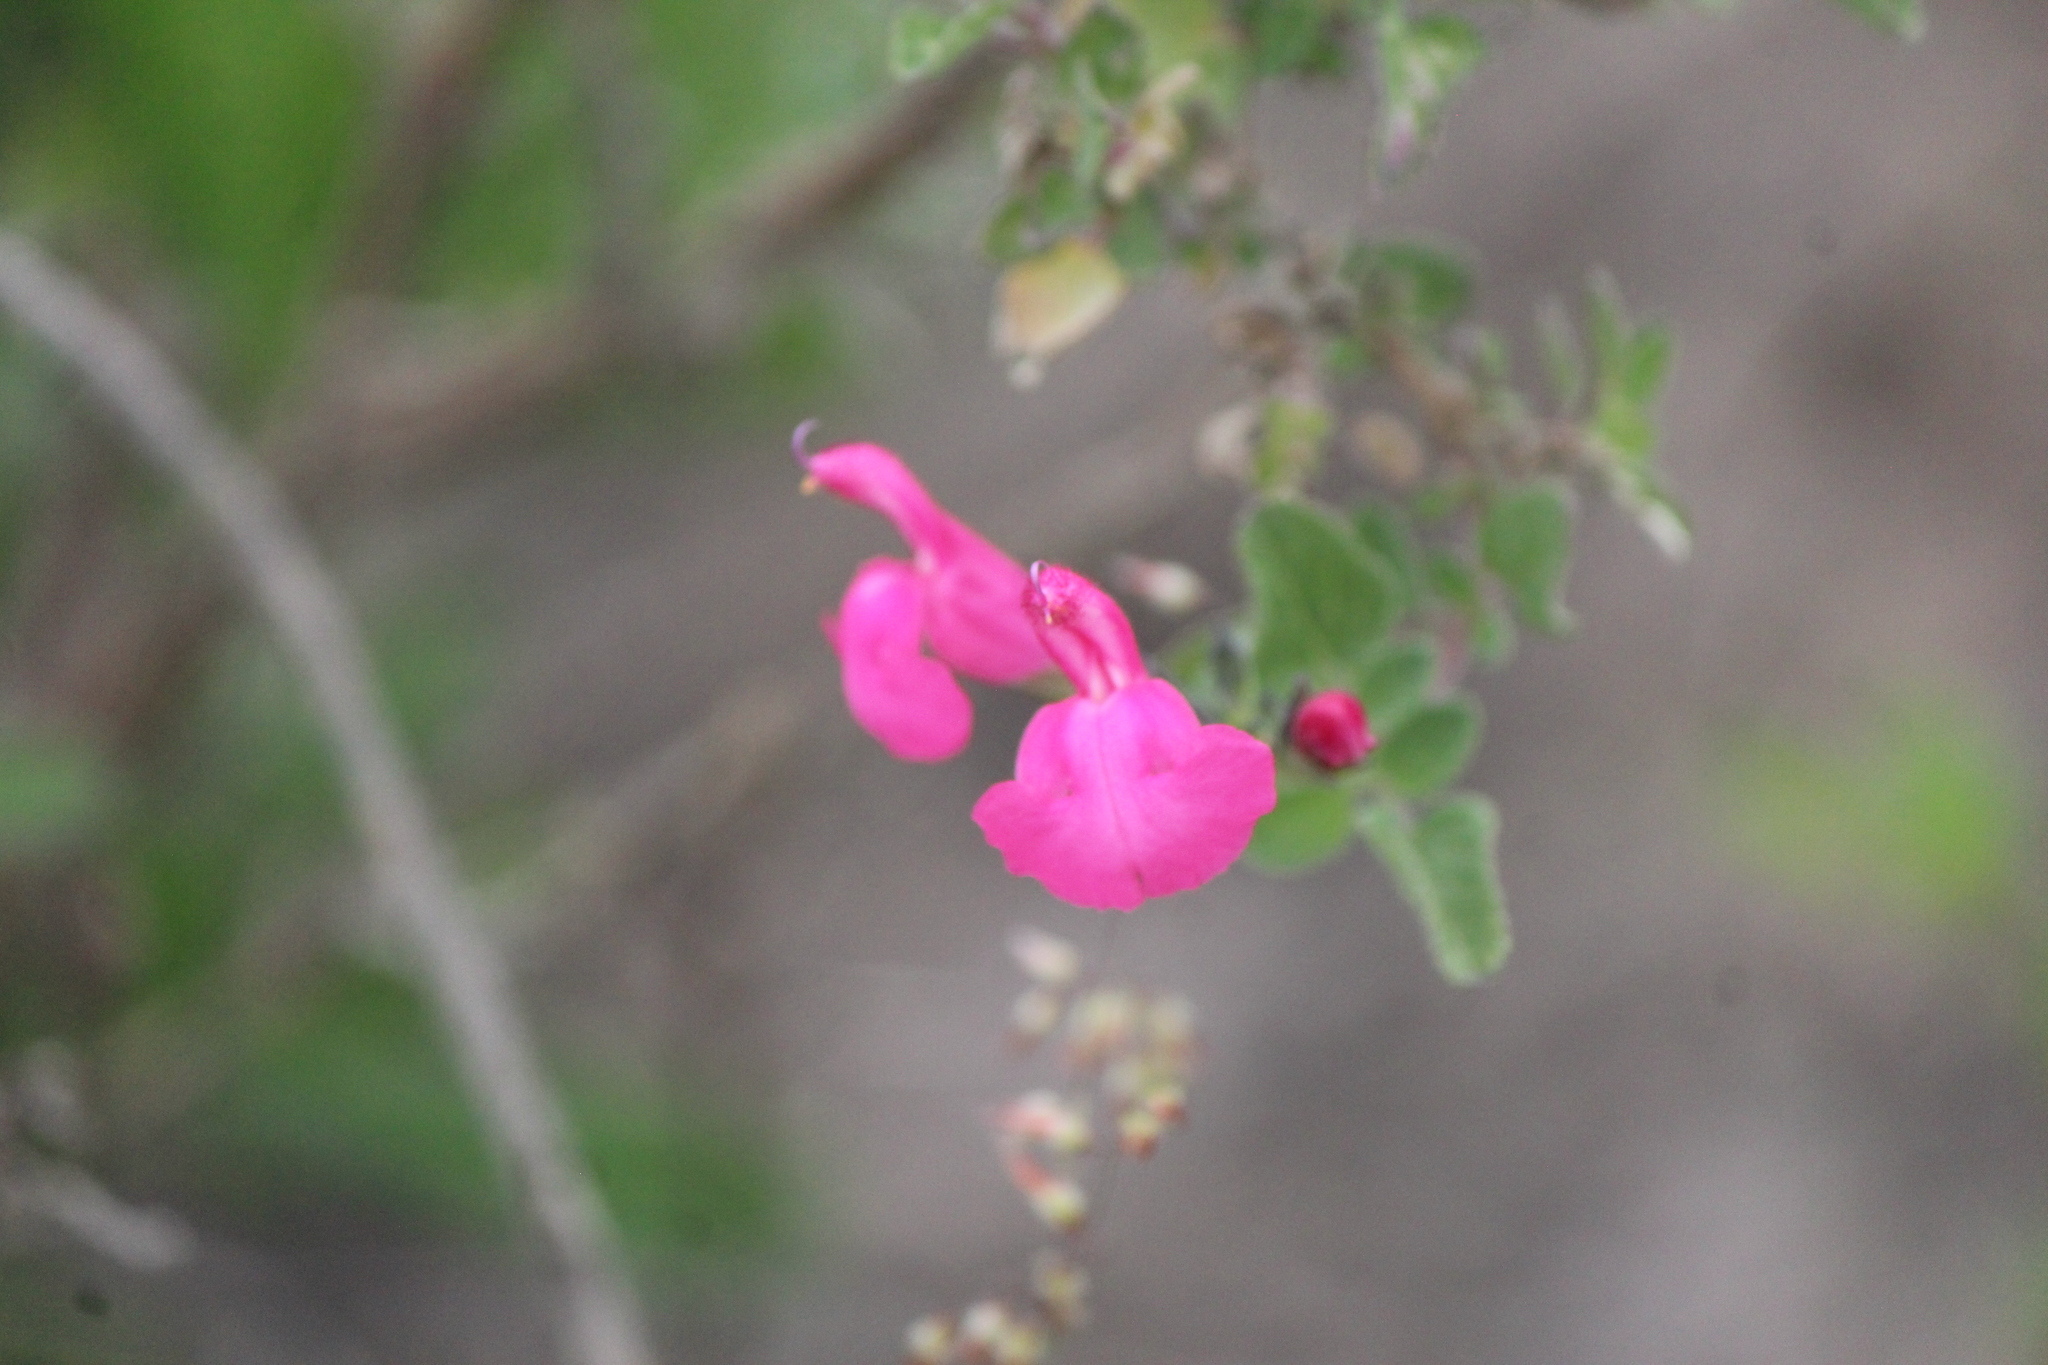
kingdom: Plantae
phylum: Tracheophyta
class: Magnoliopsida
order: Lamiales
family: Lamiaceae
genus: Salvia
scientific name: Salvia microphylla
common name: Baby sage
